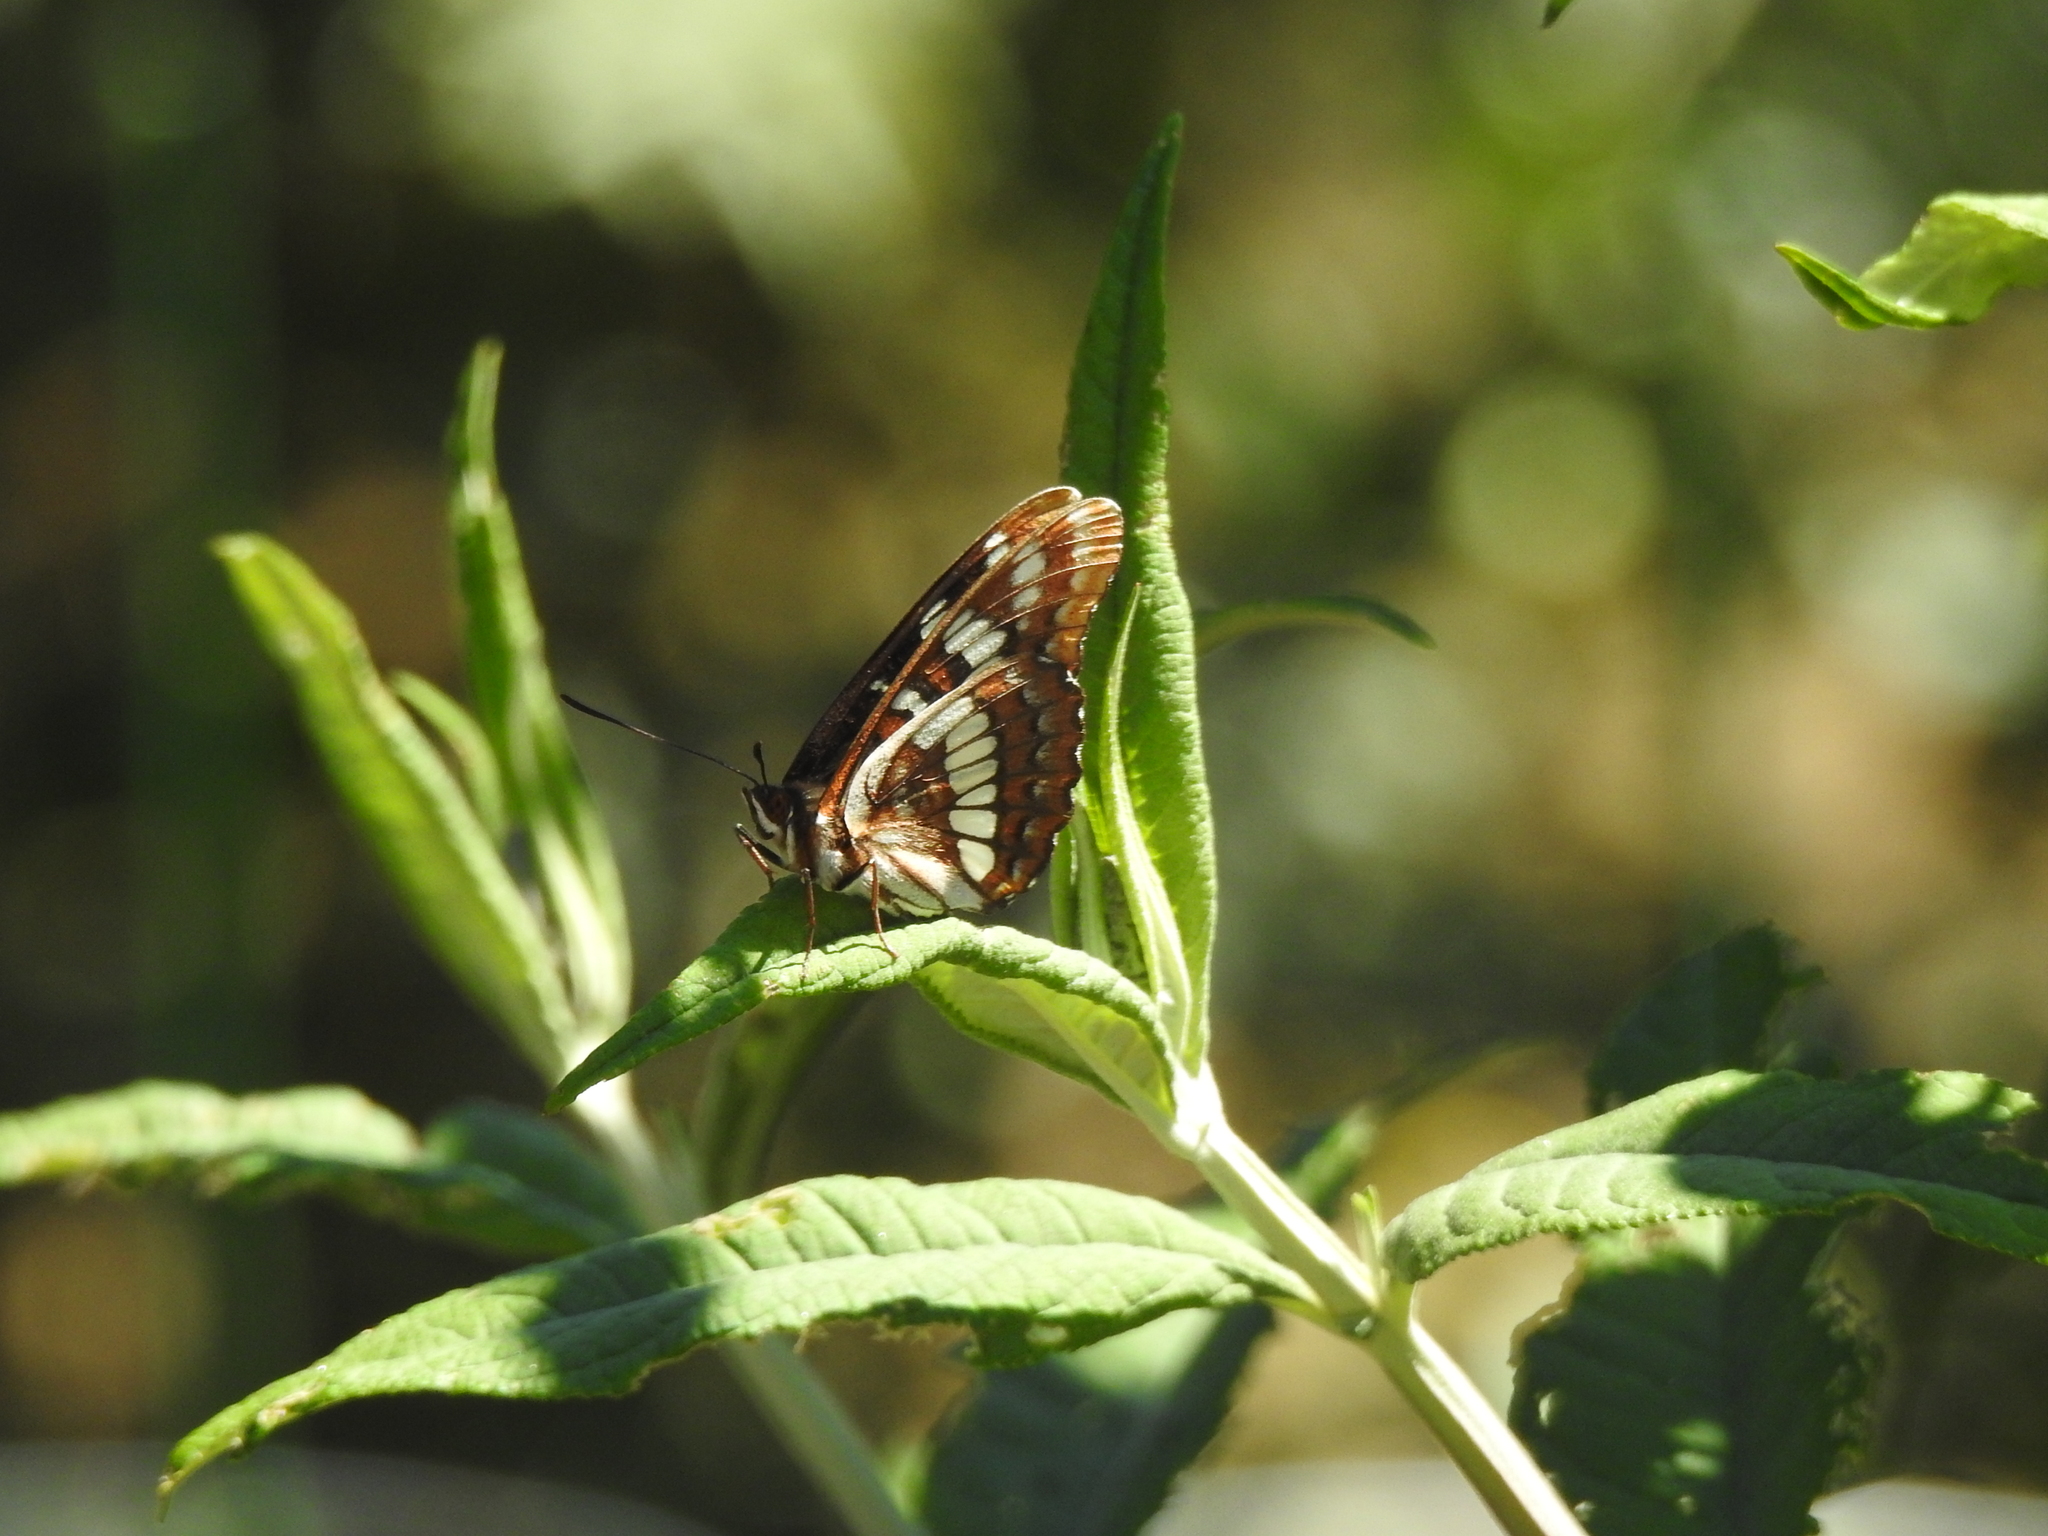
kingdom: Animalia
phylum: Arthropoda
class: Insecta
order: Lepidoptera
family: Nymphalidae
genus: Limenitis
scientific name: Limenitis lorquini
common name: Lorquin's admiral
